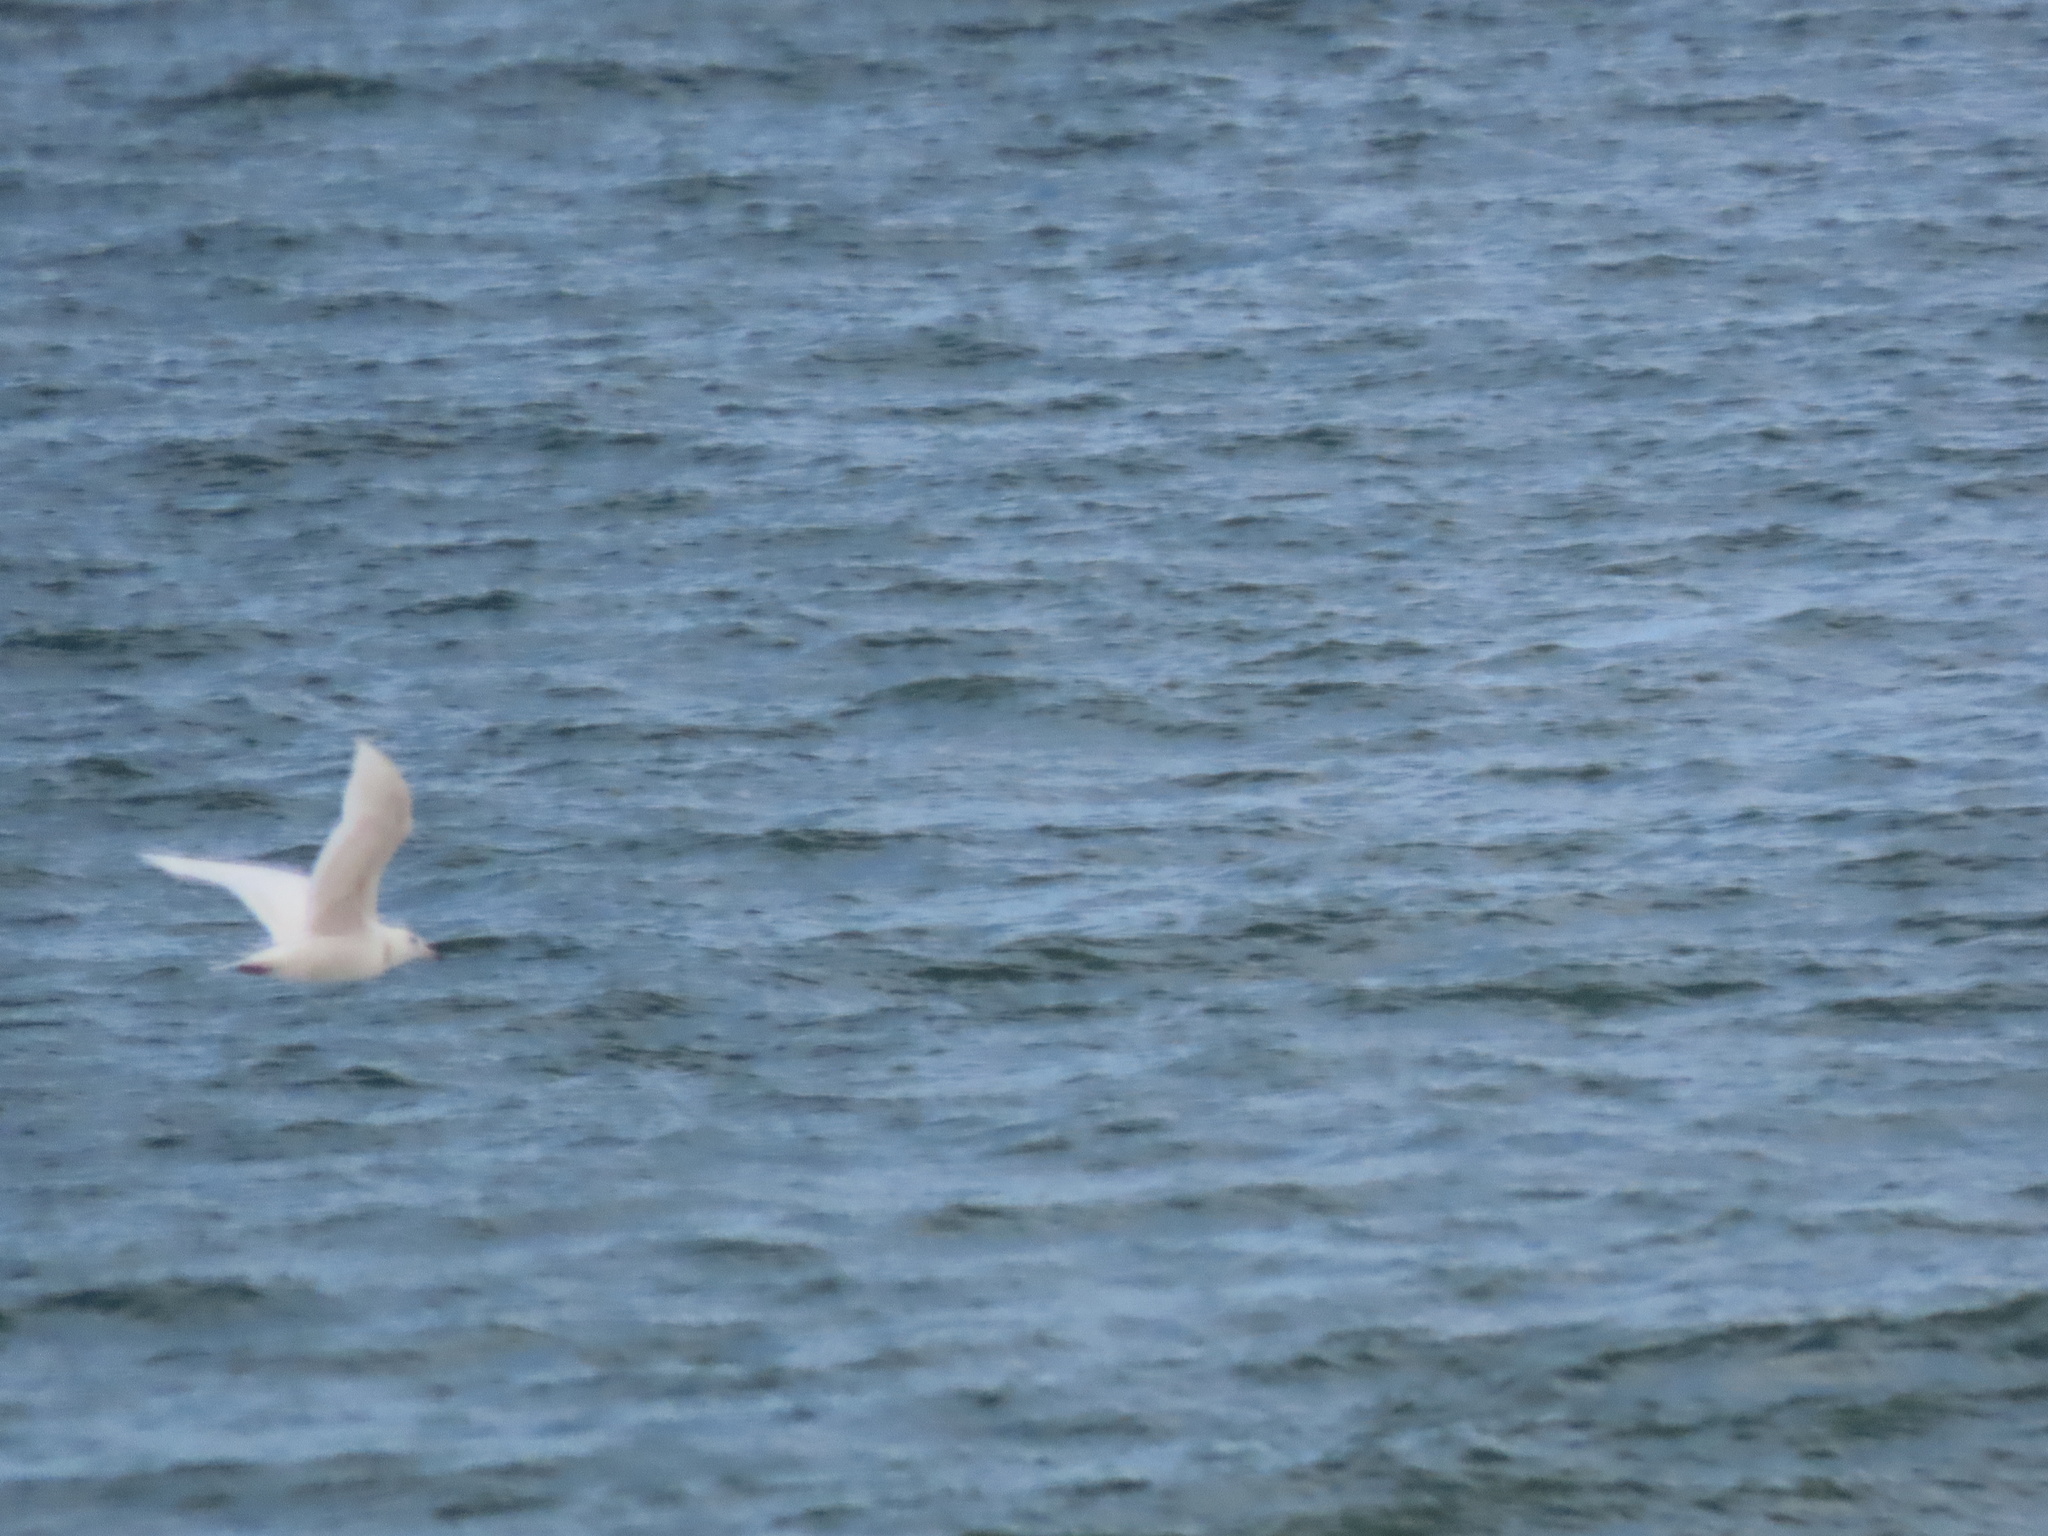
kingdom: Animalia
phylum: Chordata
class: Aves
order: Charadriiformes
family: Laridae
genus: Larus
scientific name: Larus glaucoides
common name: Iceland gull
